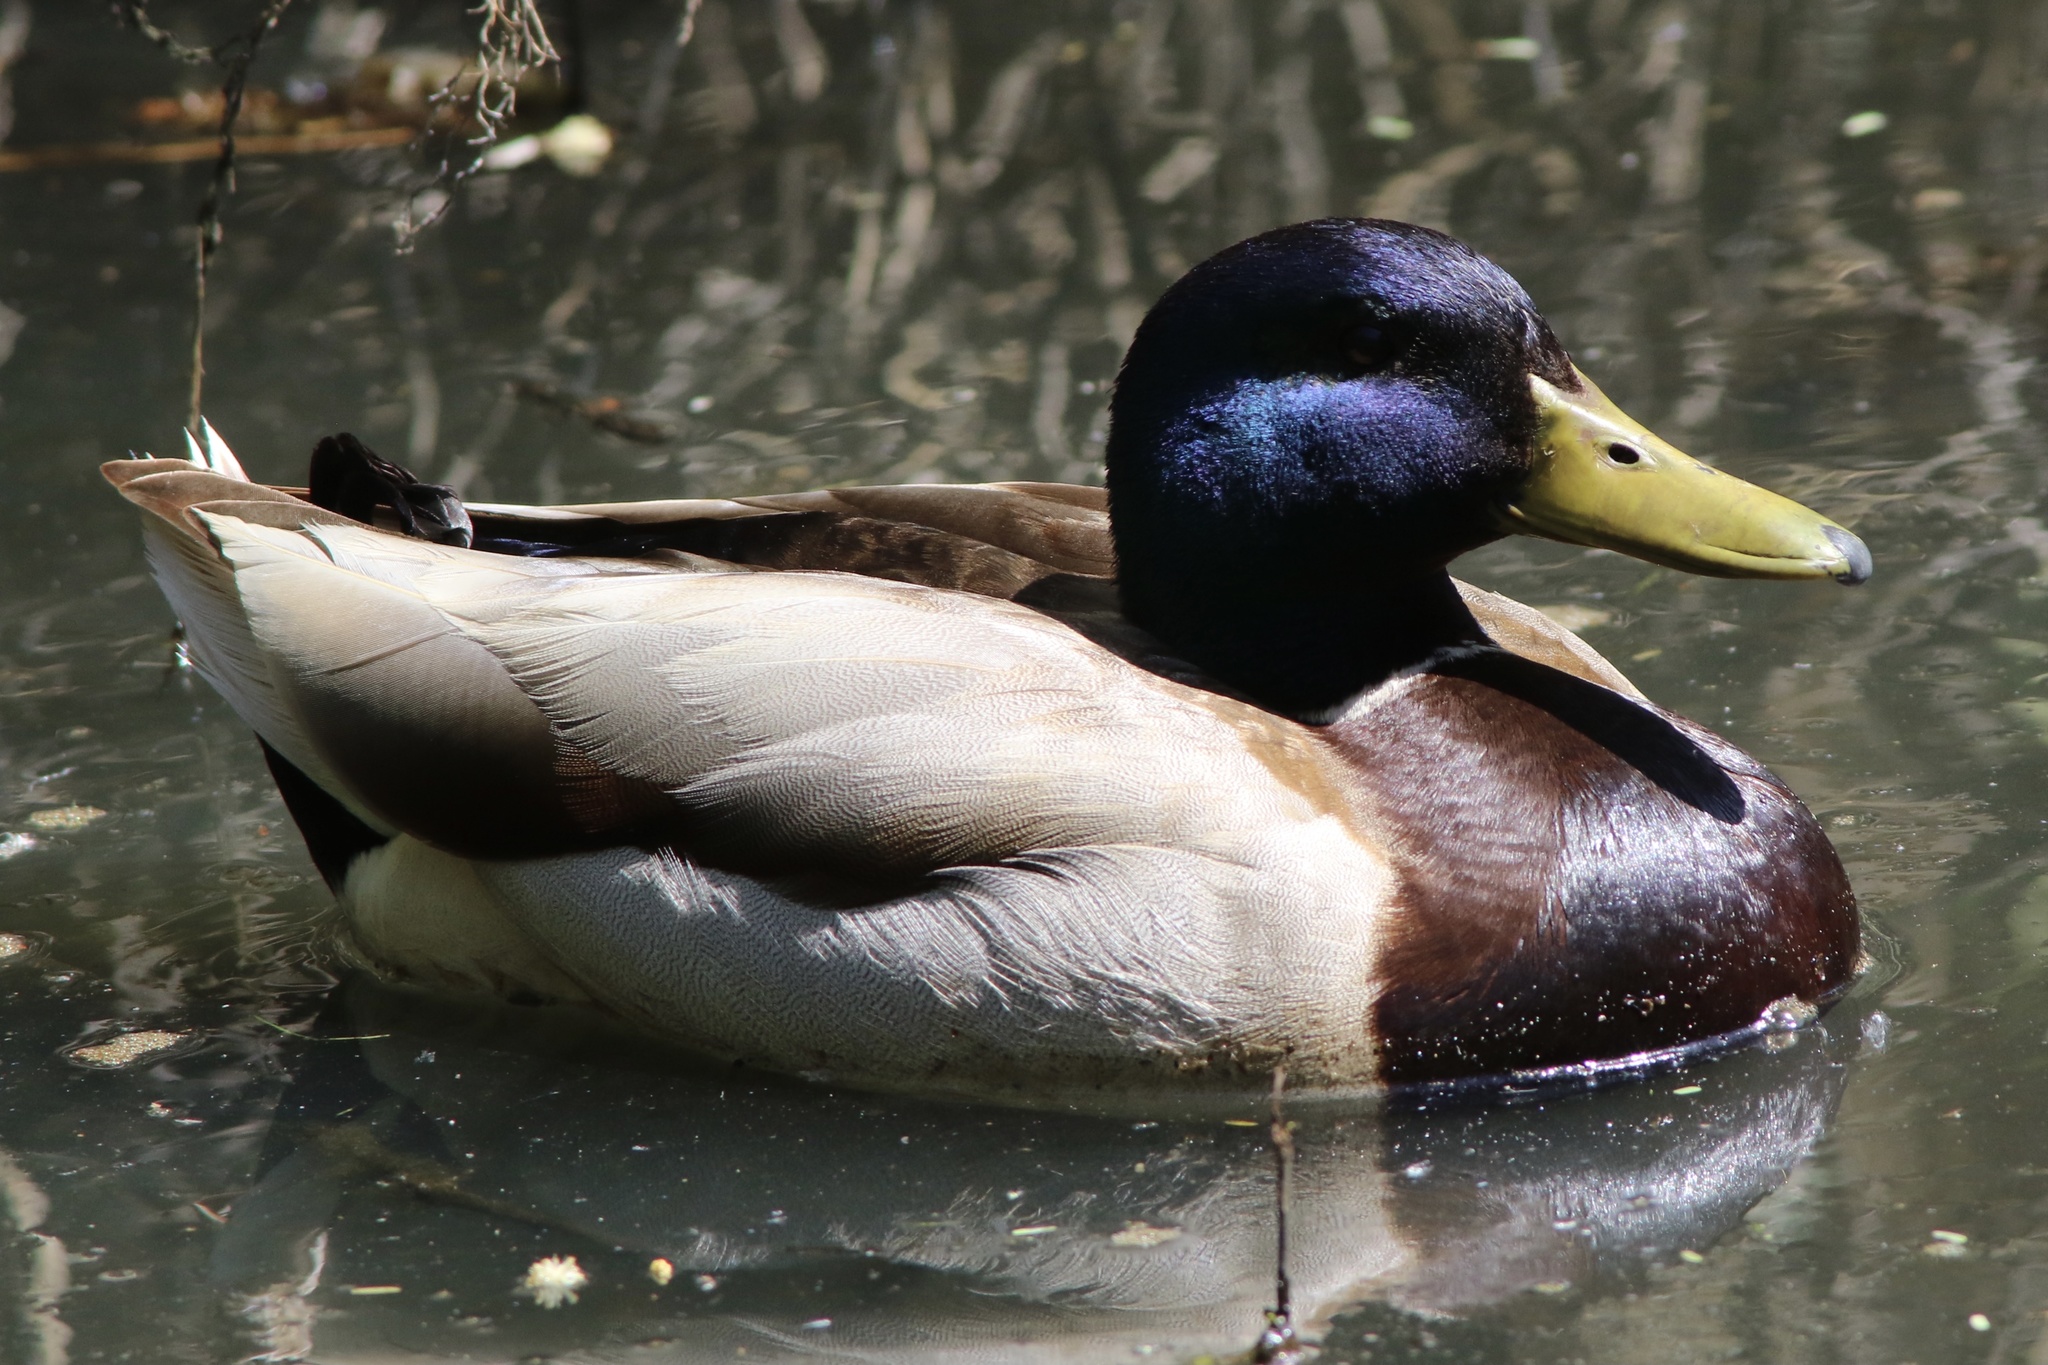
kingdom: Animalia
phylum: Chordata
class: Aves
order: Anseriformes
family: Anatidae
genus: Anas
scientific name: Anas platyrhynchos
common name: Mallard
